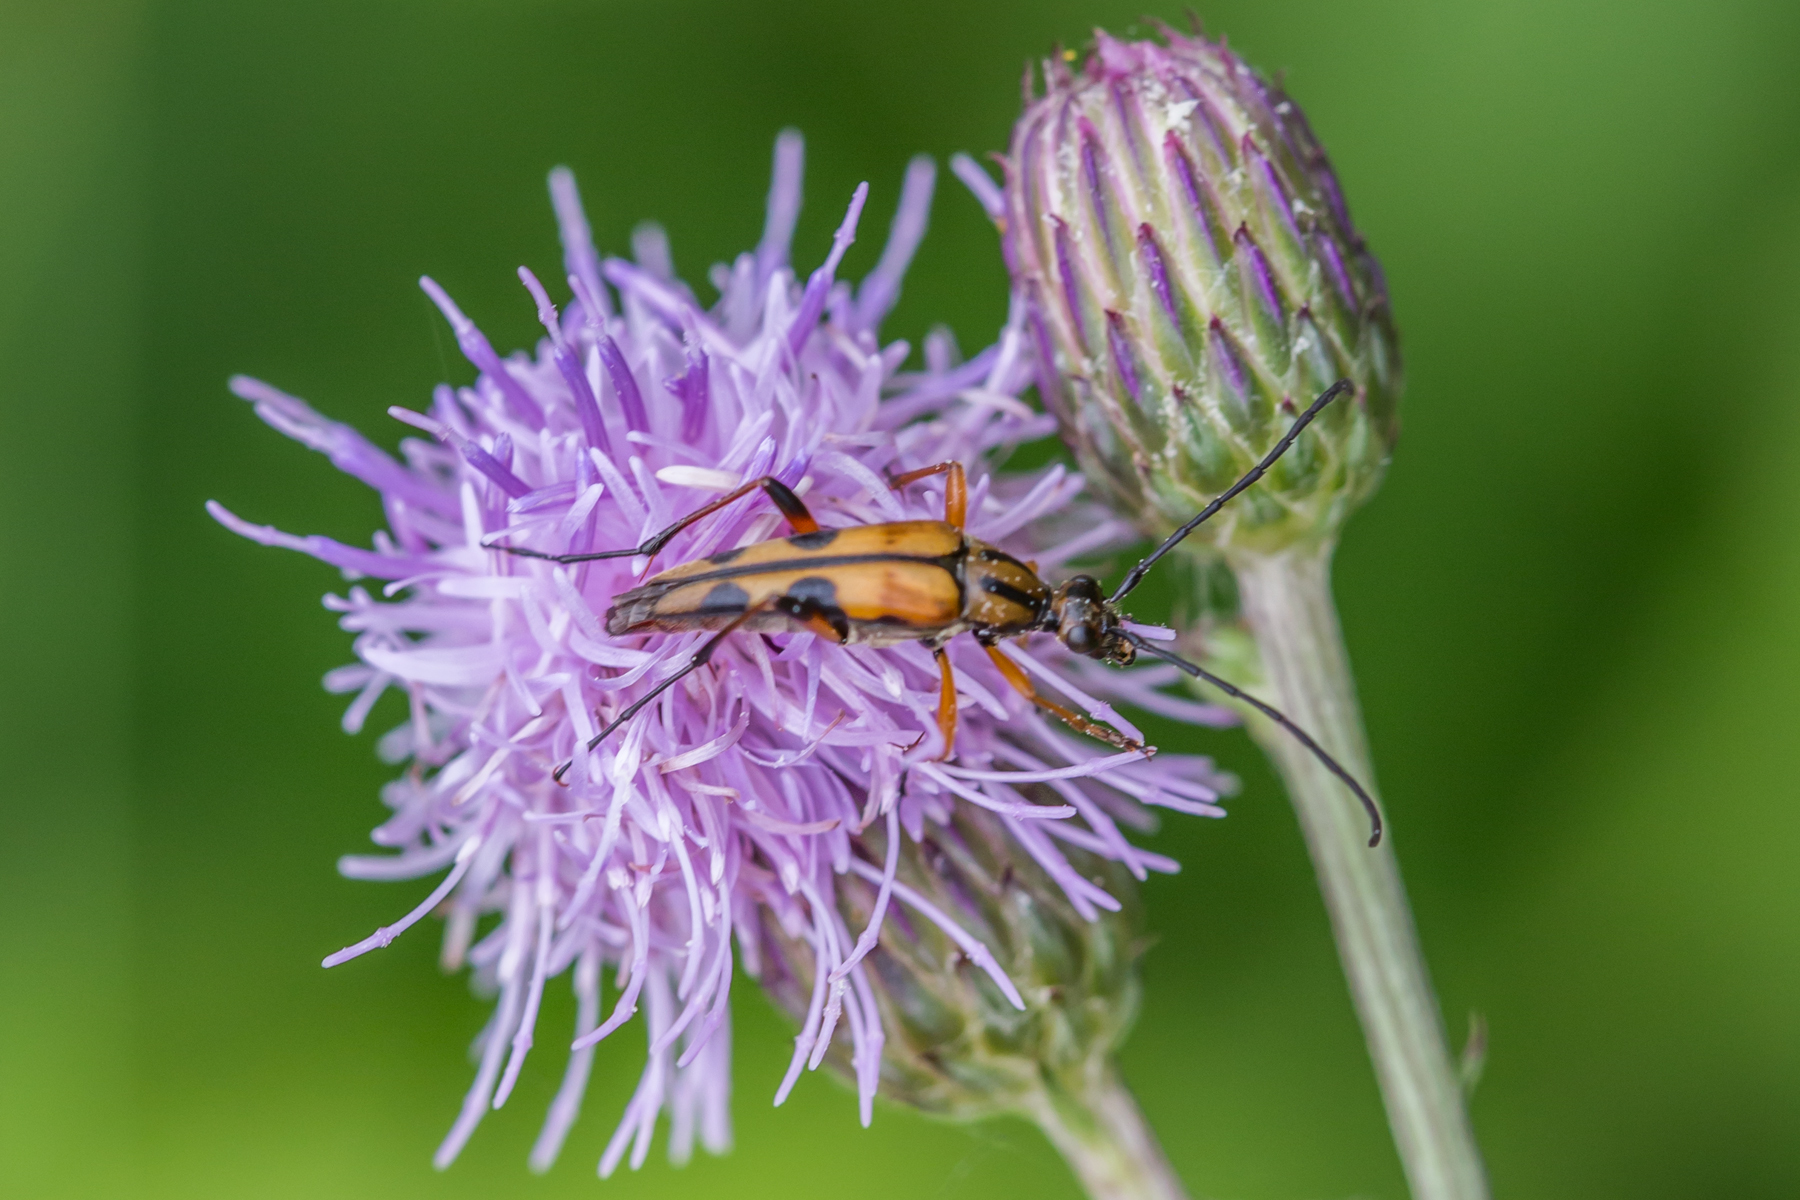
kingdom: Animalia
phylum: Arthropoda
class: Insecta
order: Coleoptera
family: Cerambycidae
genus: Strangalia
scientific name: Strangalia famelica
